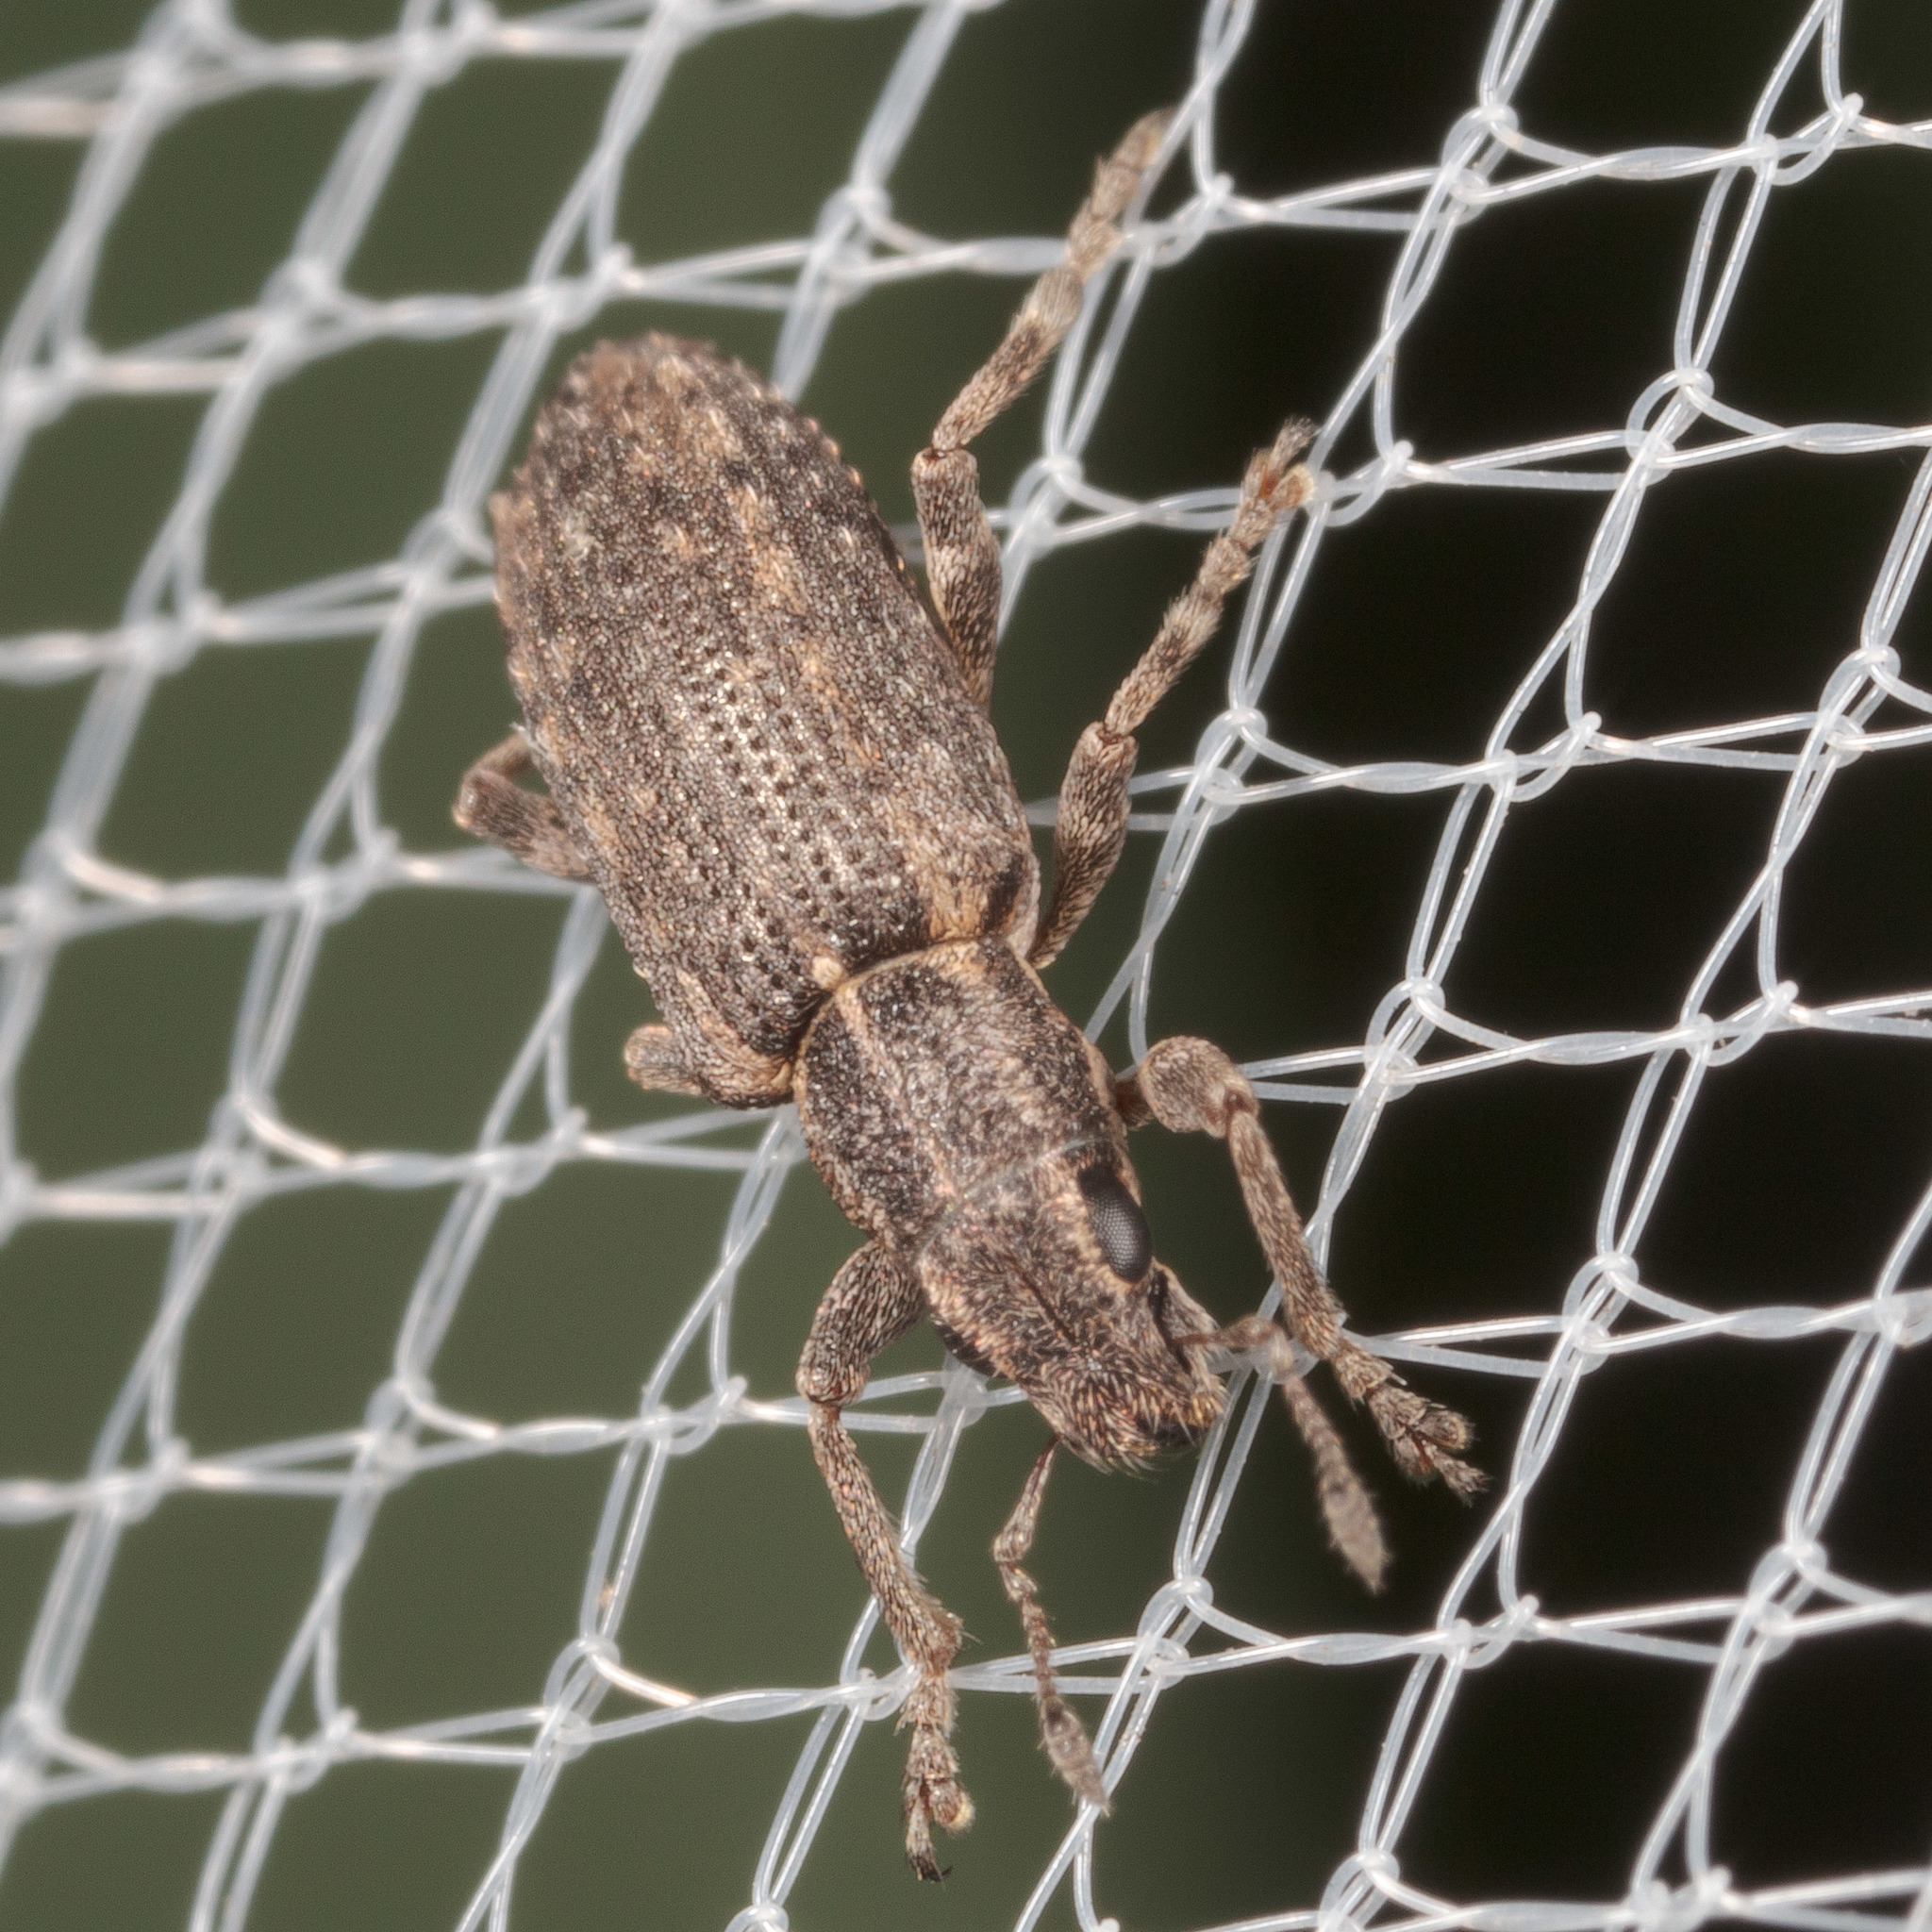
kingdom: Animalia
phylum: Arthropoda
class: Insecta
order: Coleoptera
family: Curculionidae
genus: Sitones
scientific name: Sitones californius
